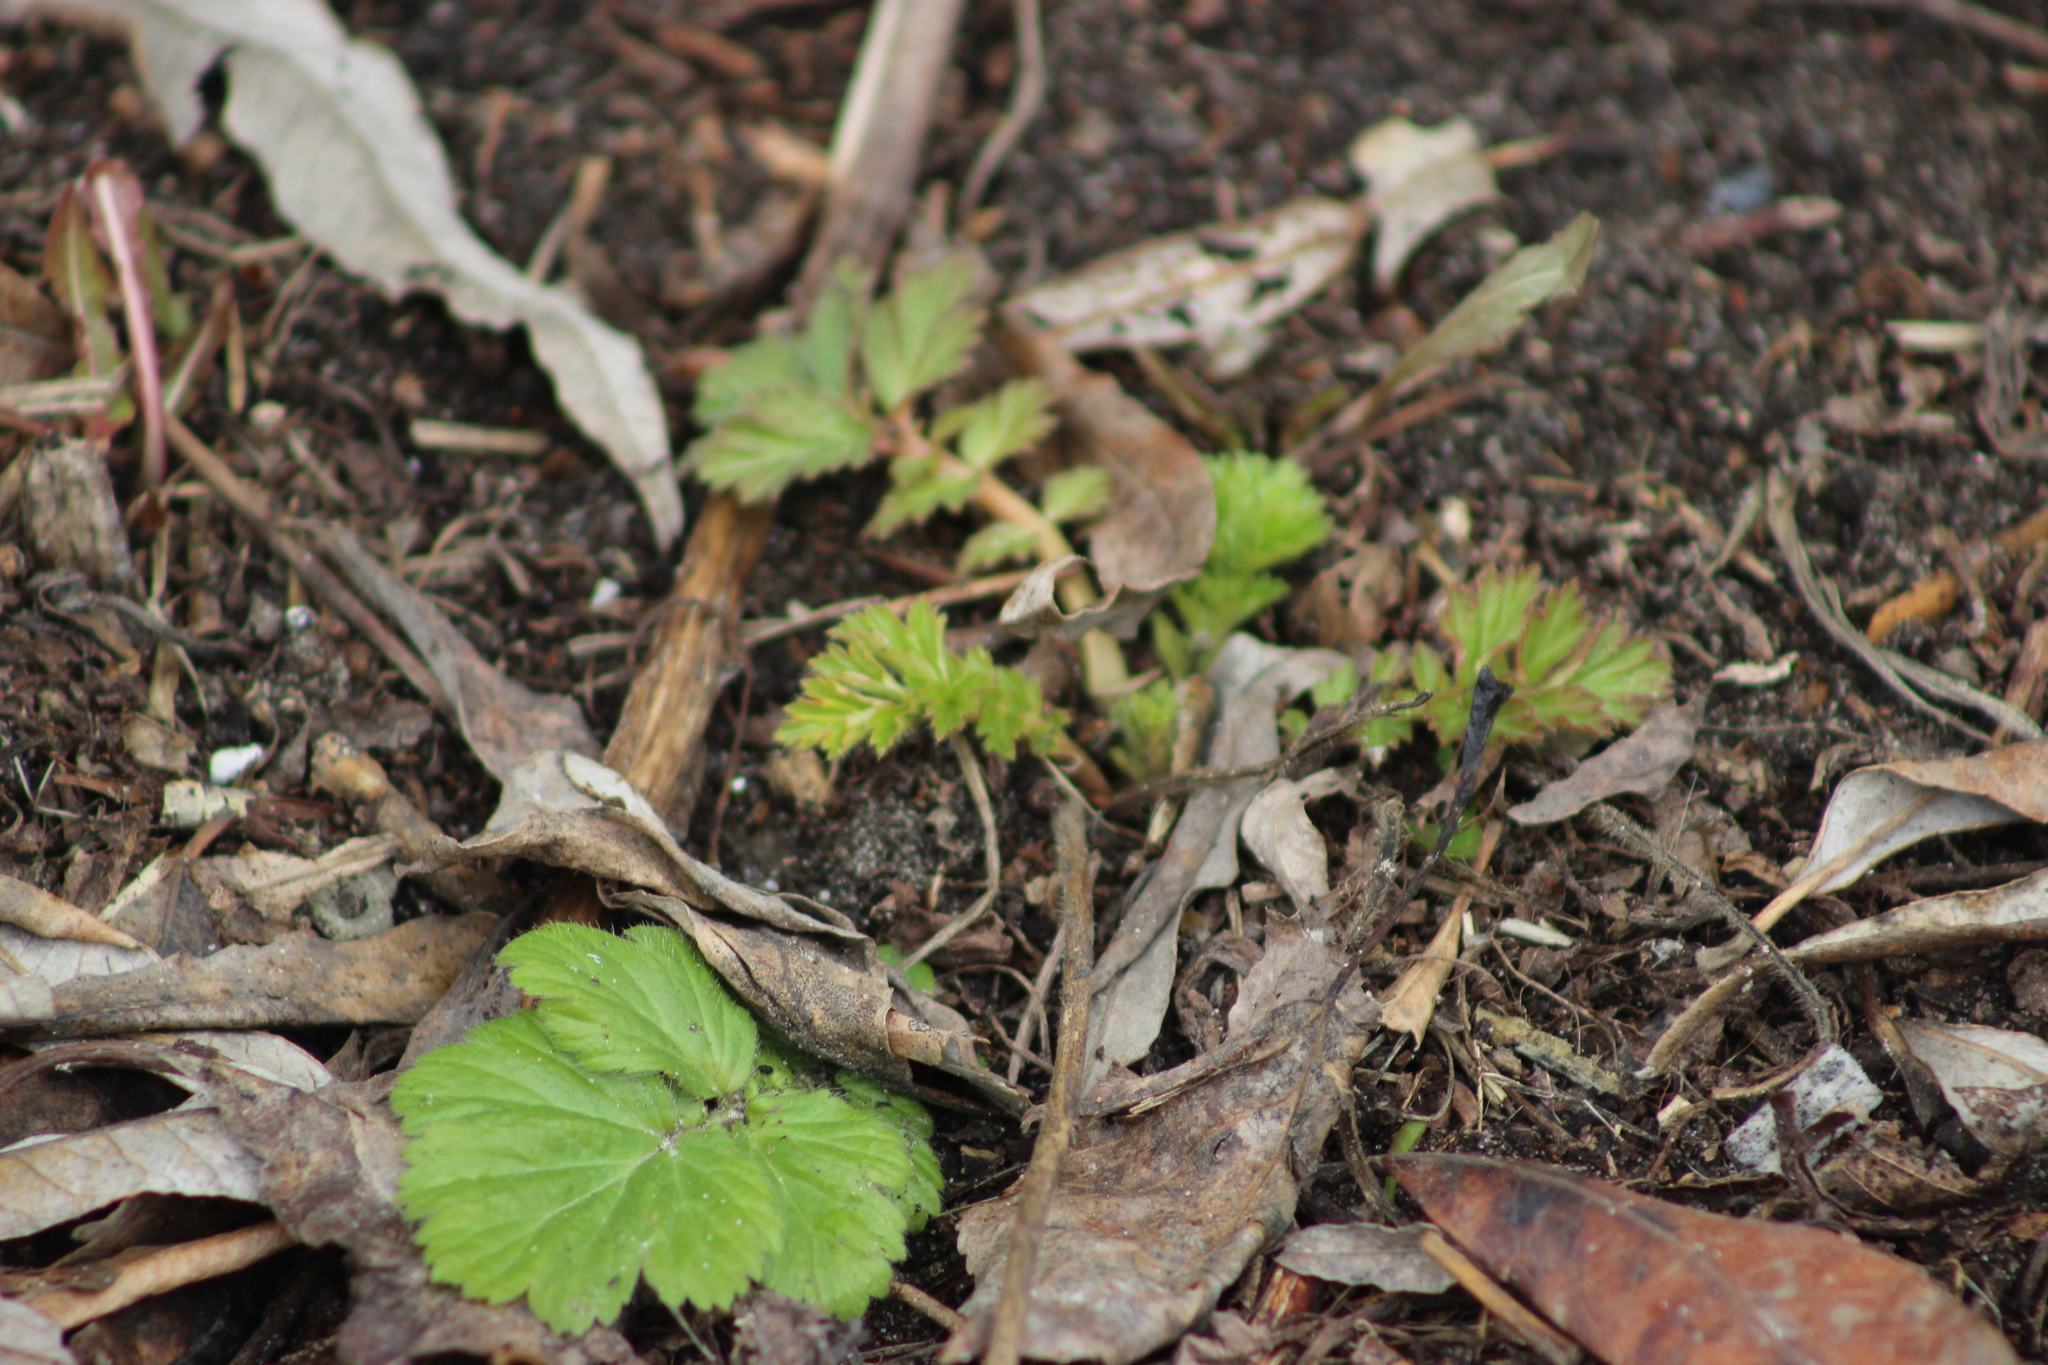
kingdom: Plantae
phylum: Tracheophyta
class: Magnoliopsida
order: Rosales
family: Rosaceae
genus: Geum
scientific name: Geum aleppicum
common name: Yellow avens
